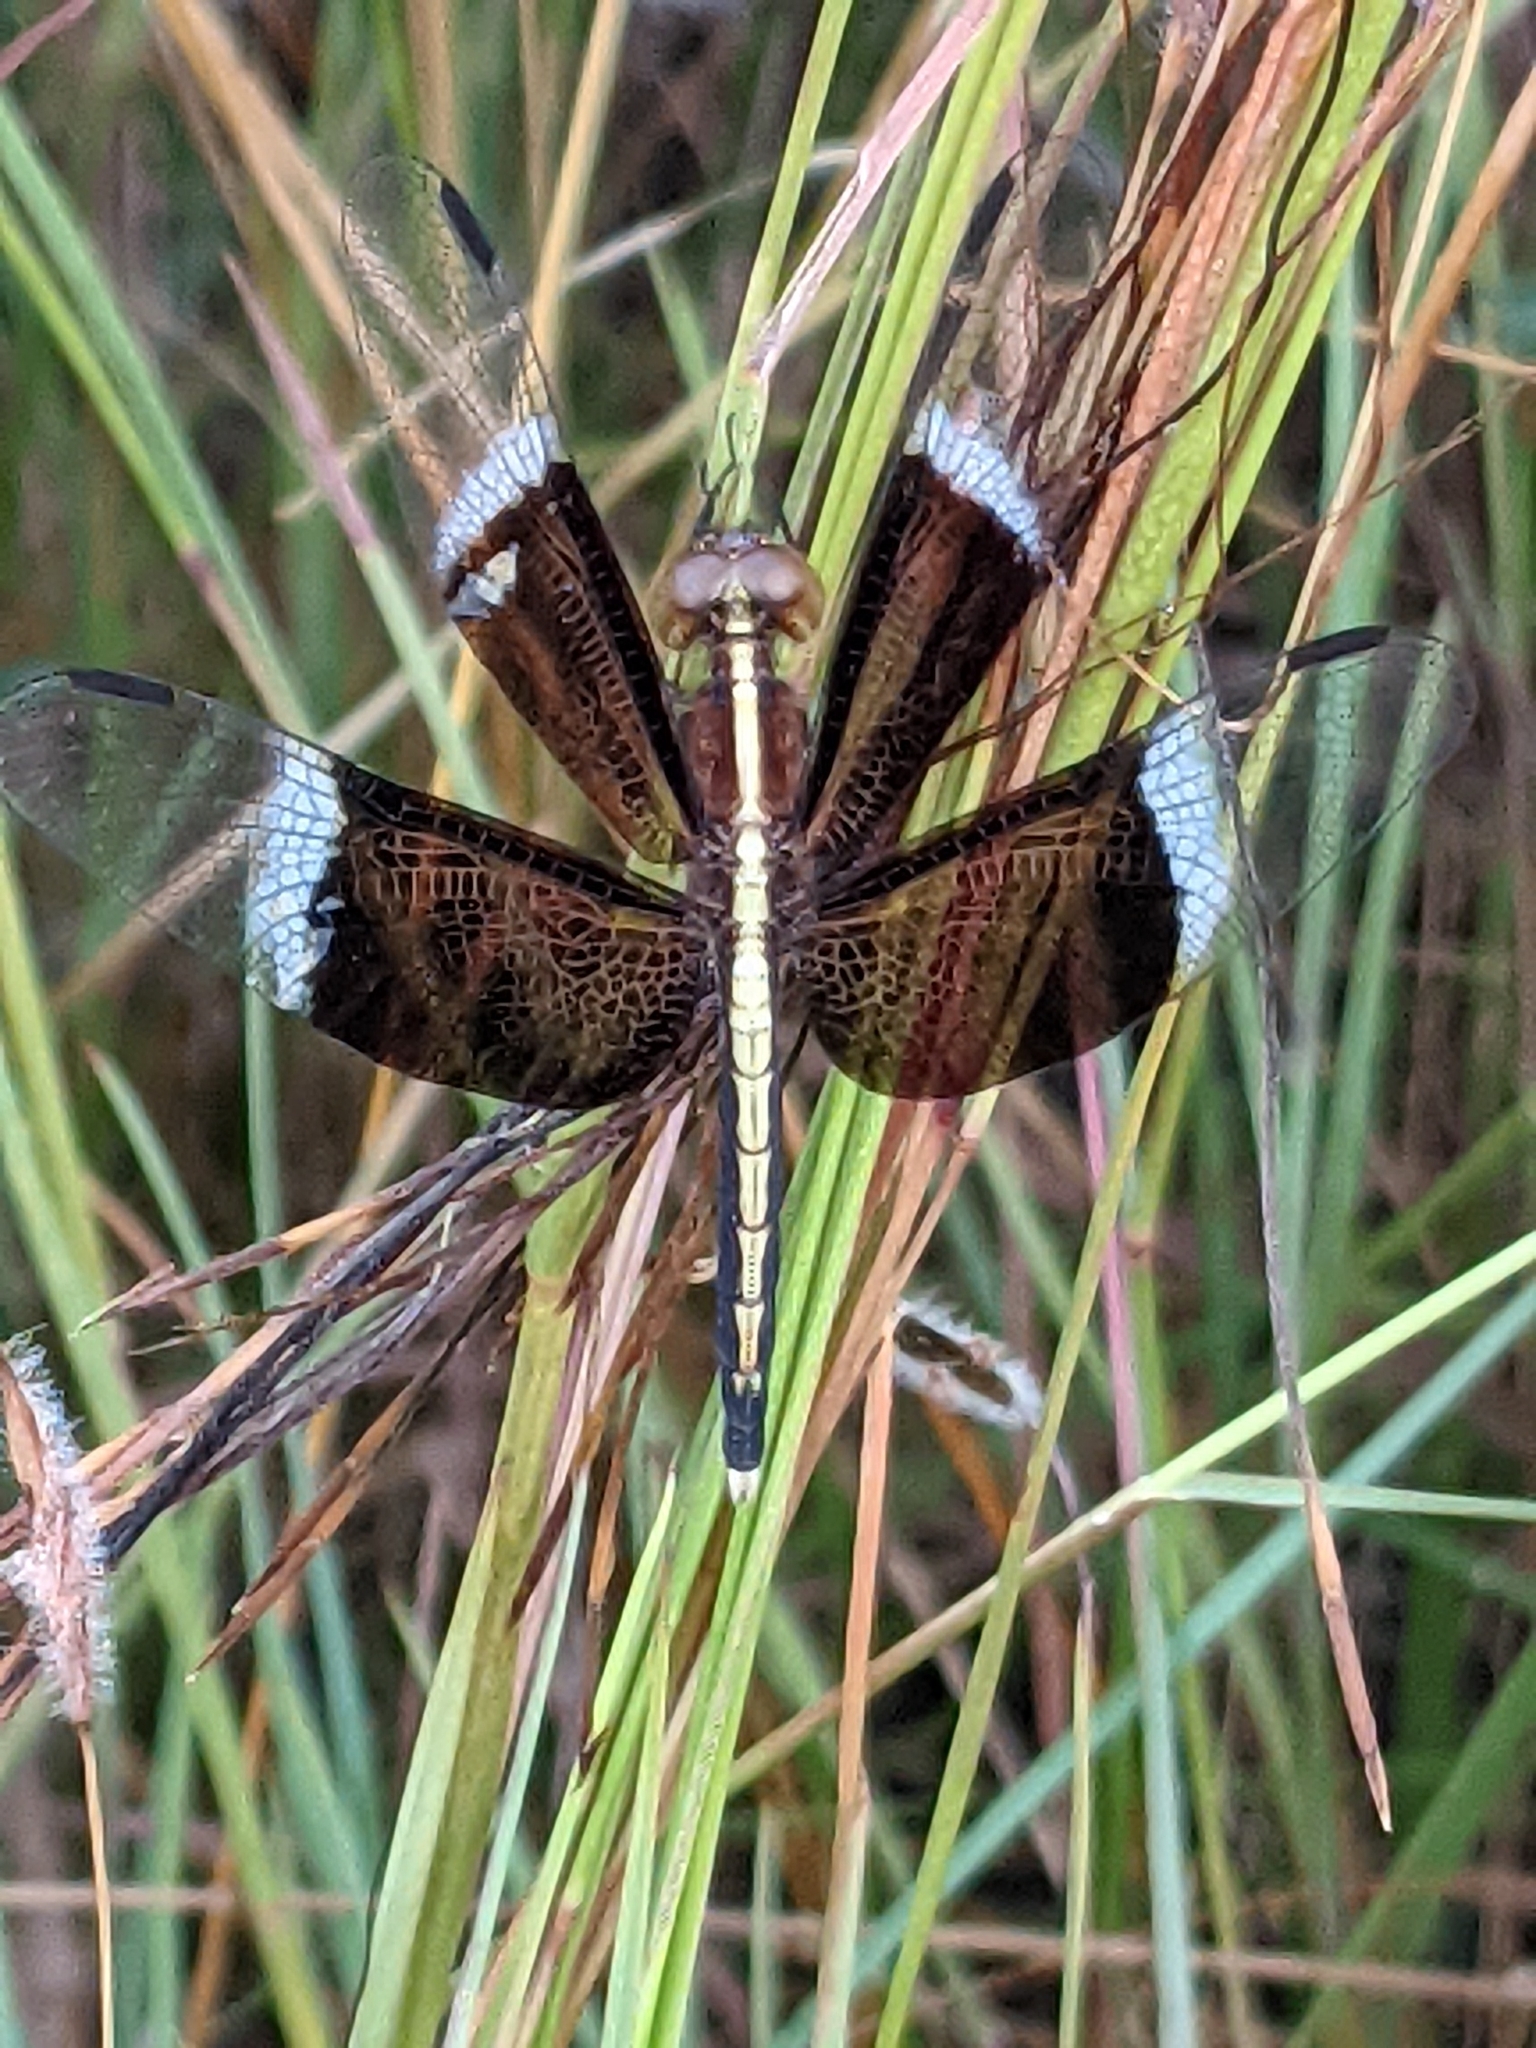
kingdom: Animalia
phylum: Arthropoda
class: Insecta
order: Odonata
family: Libellulidae
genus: Neurothemis
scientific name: Neurothemis tullia
